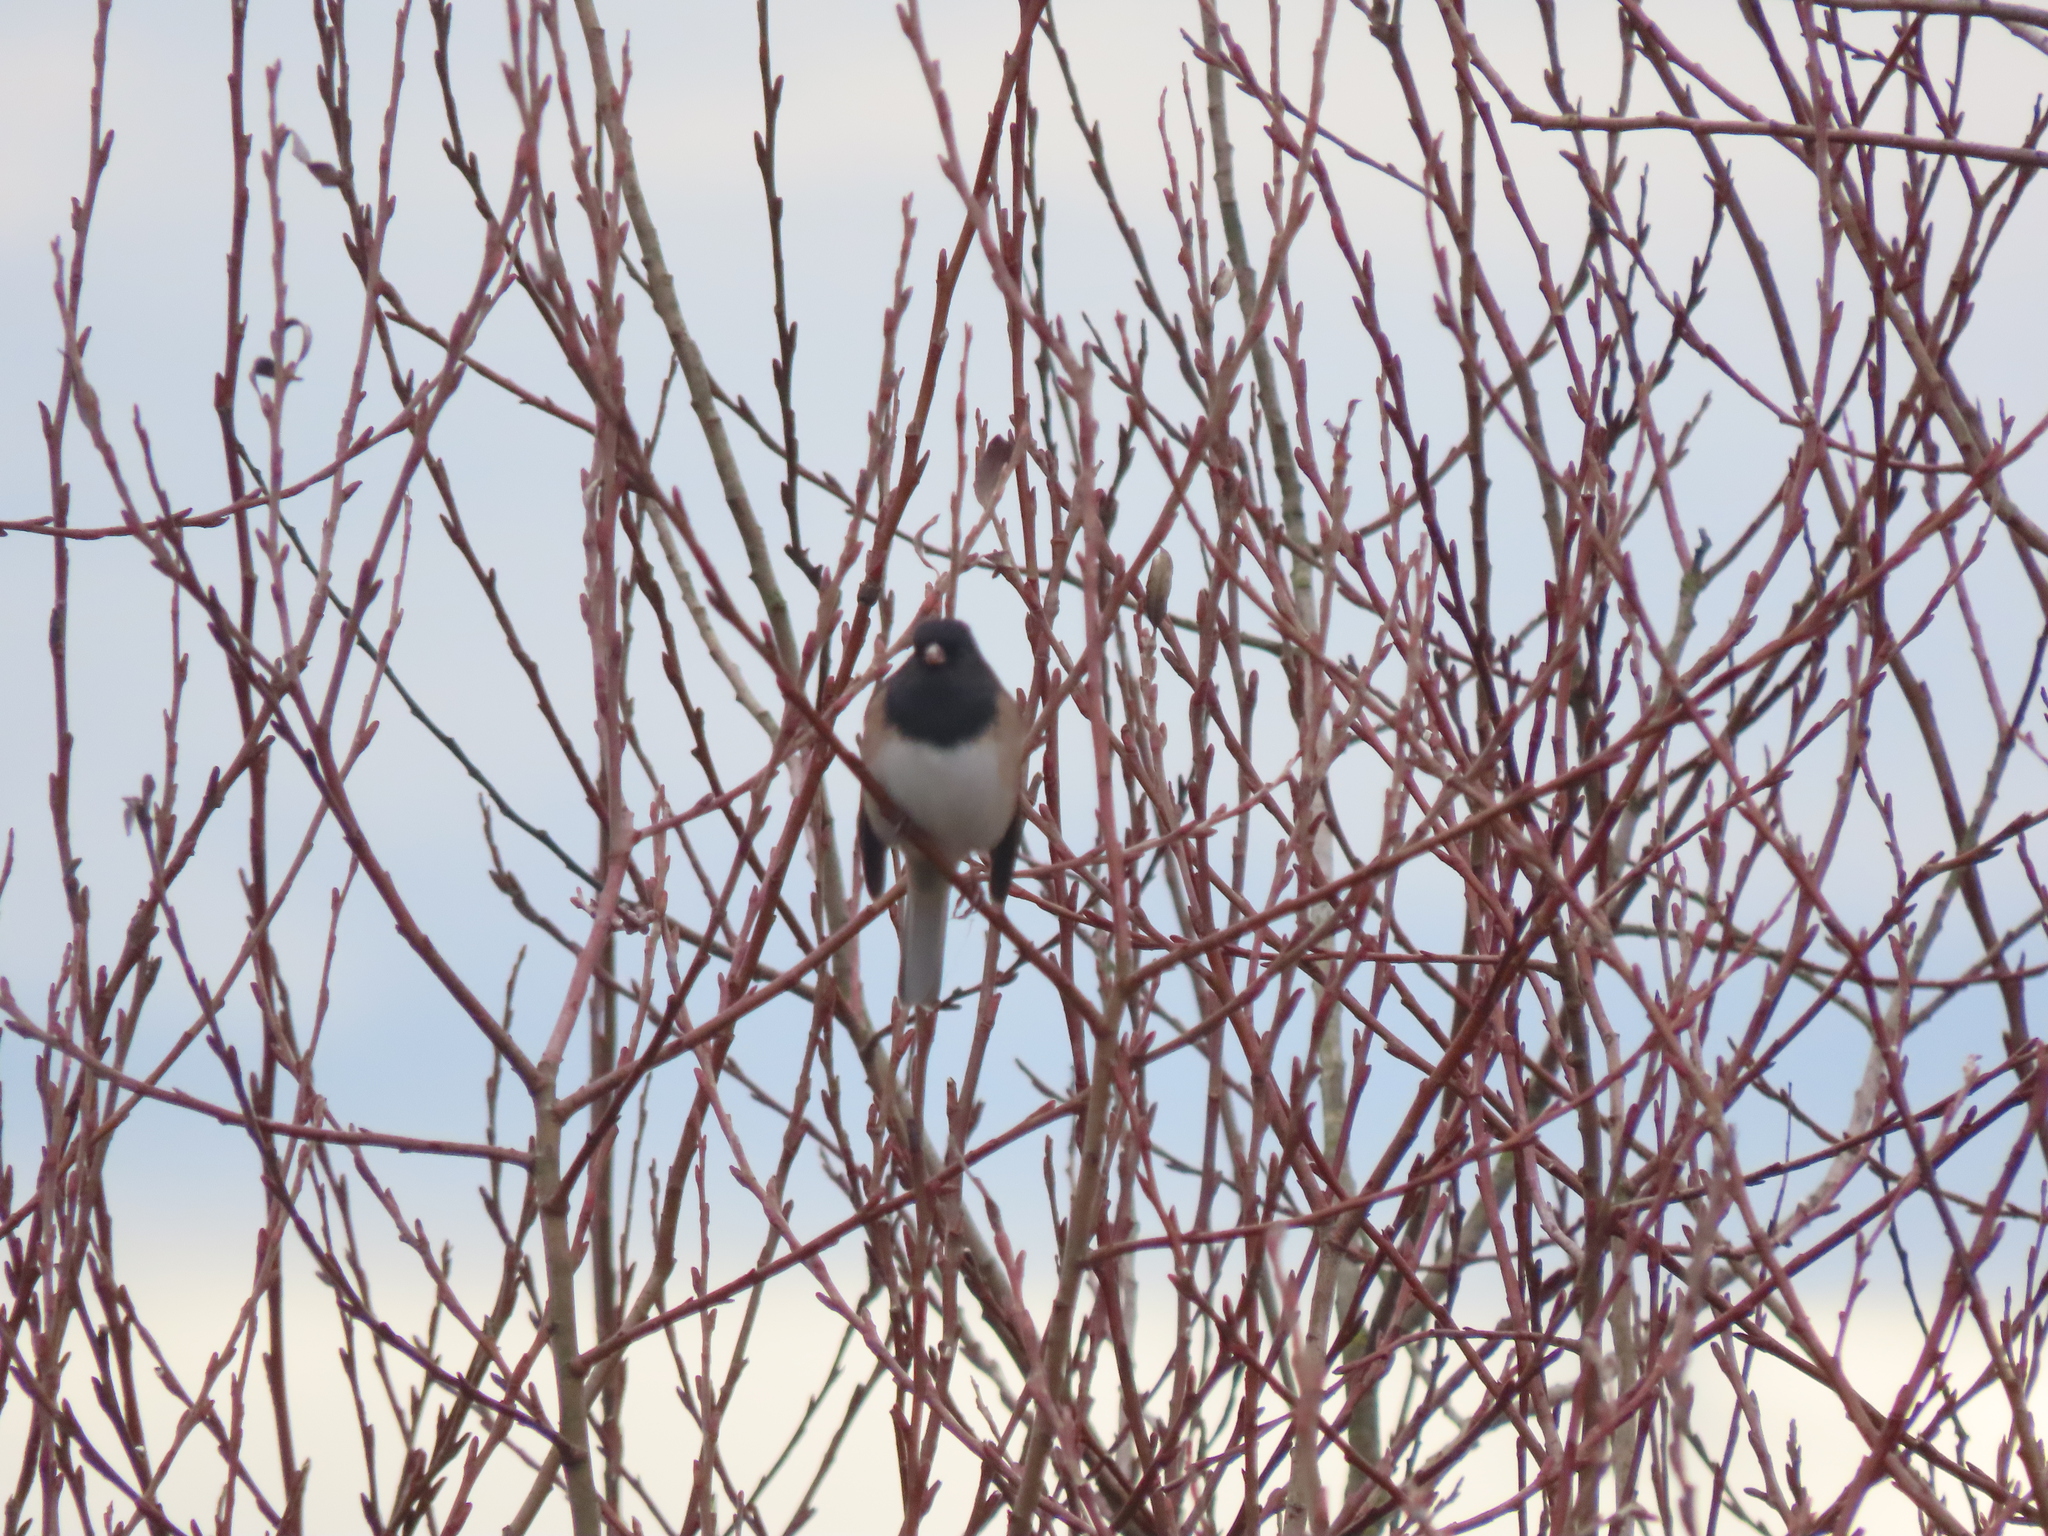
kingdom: Animalia
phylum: Chordata
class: Aves
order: Passeriformes
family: Passerellidae
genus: Junco
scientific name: Junco hyemalis
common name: Dark-eyed junco
